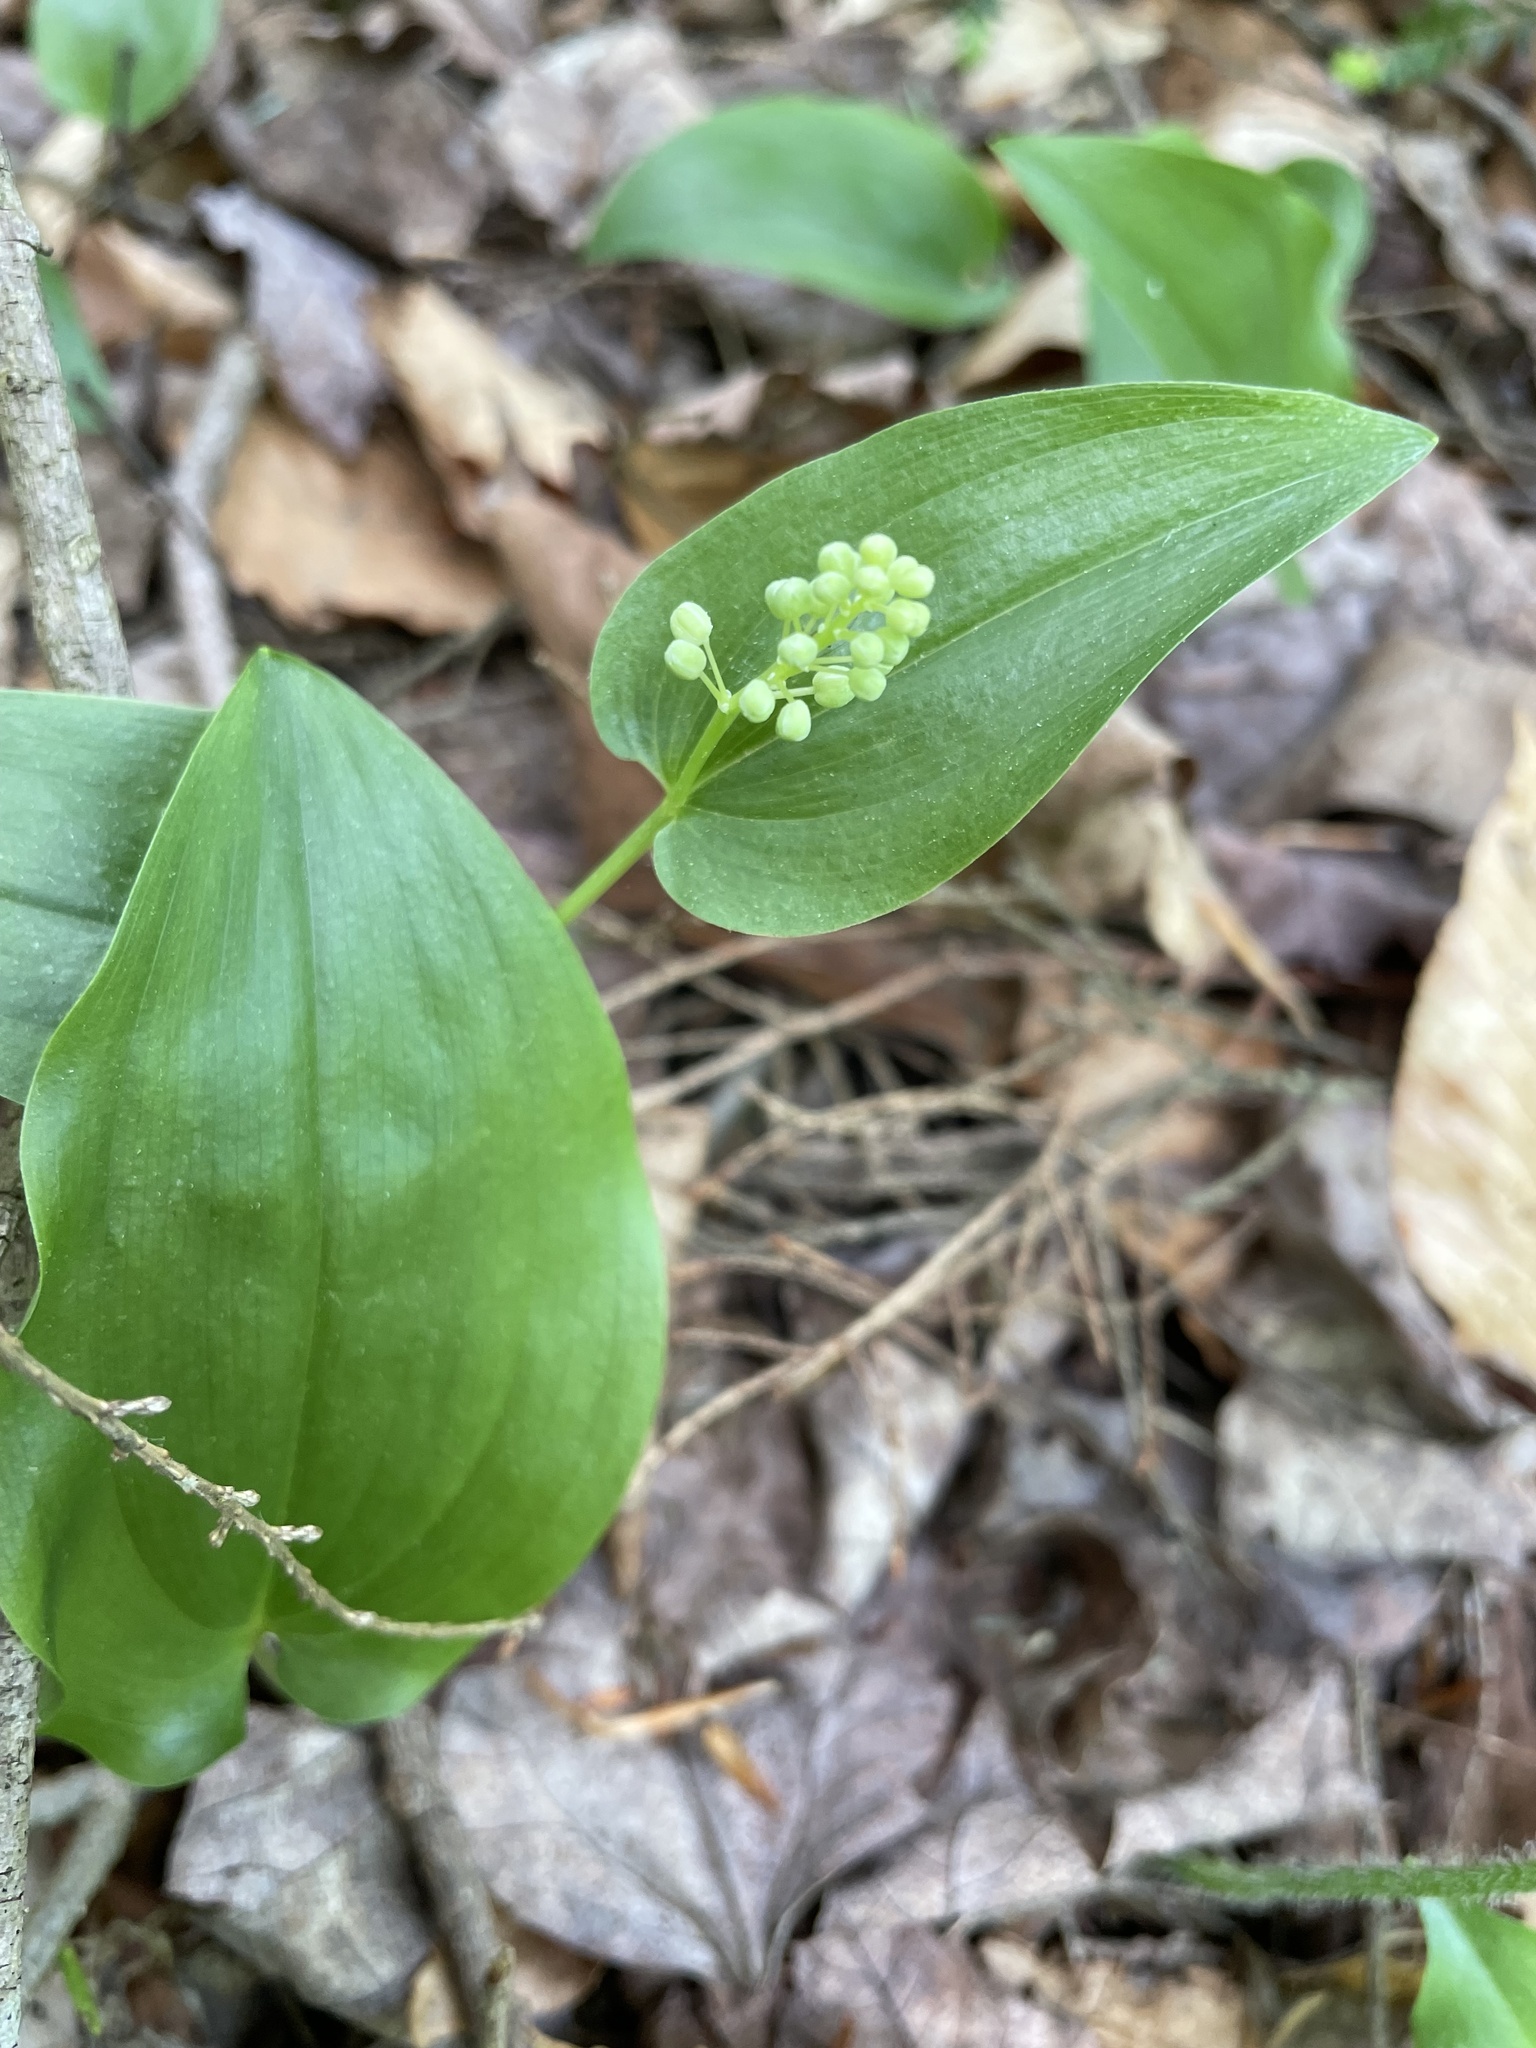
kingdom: Plantae
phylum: Tracheophyta
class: Liliopsida
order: Asparagales
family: Asparagaceae
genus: Maianthemum
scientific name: Maianthemum canadense
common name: False lily-of-the-valley
